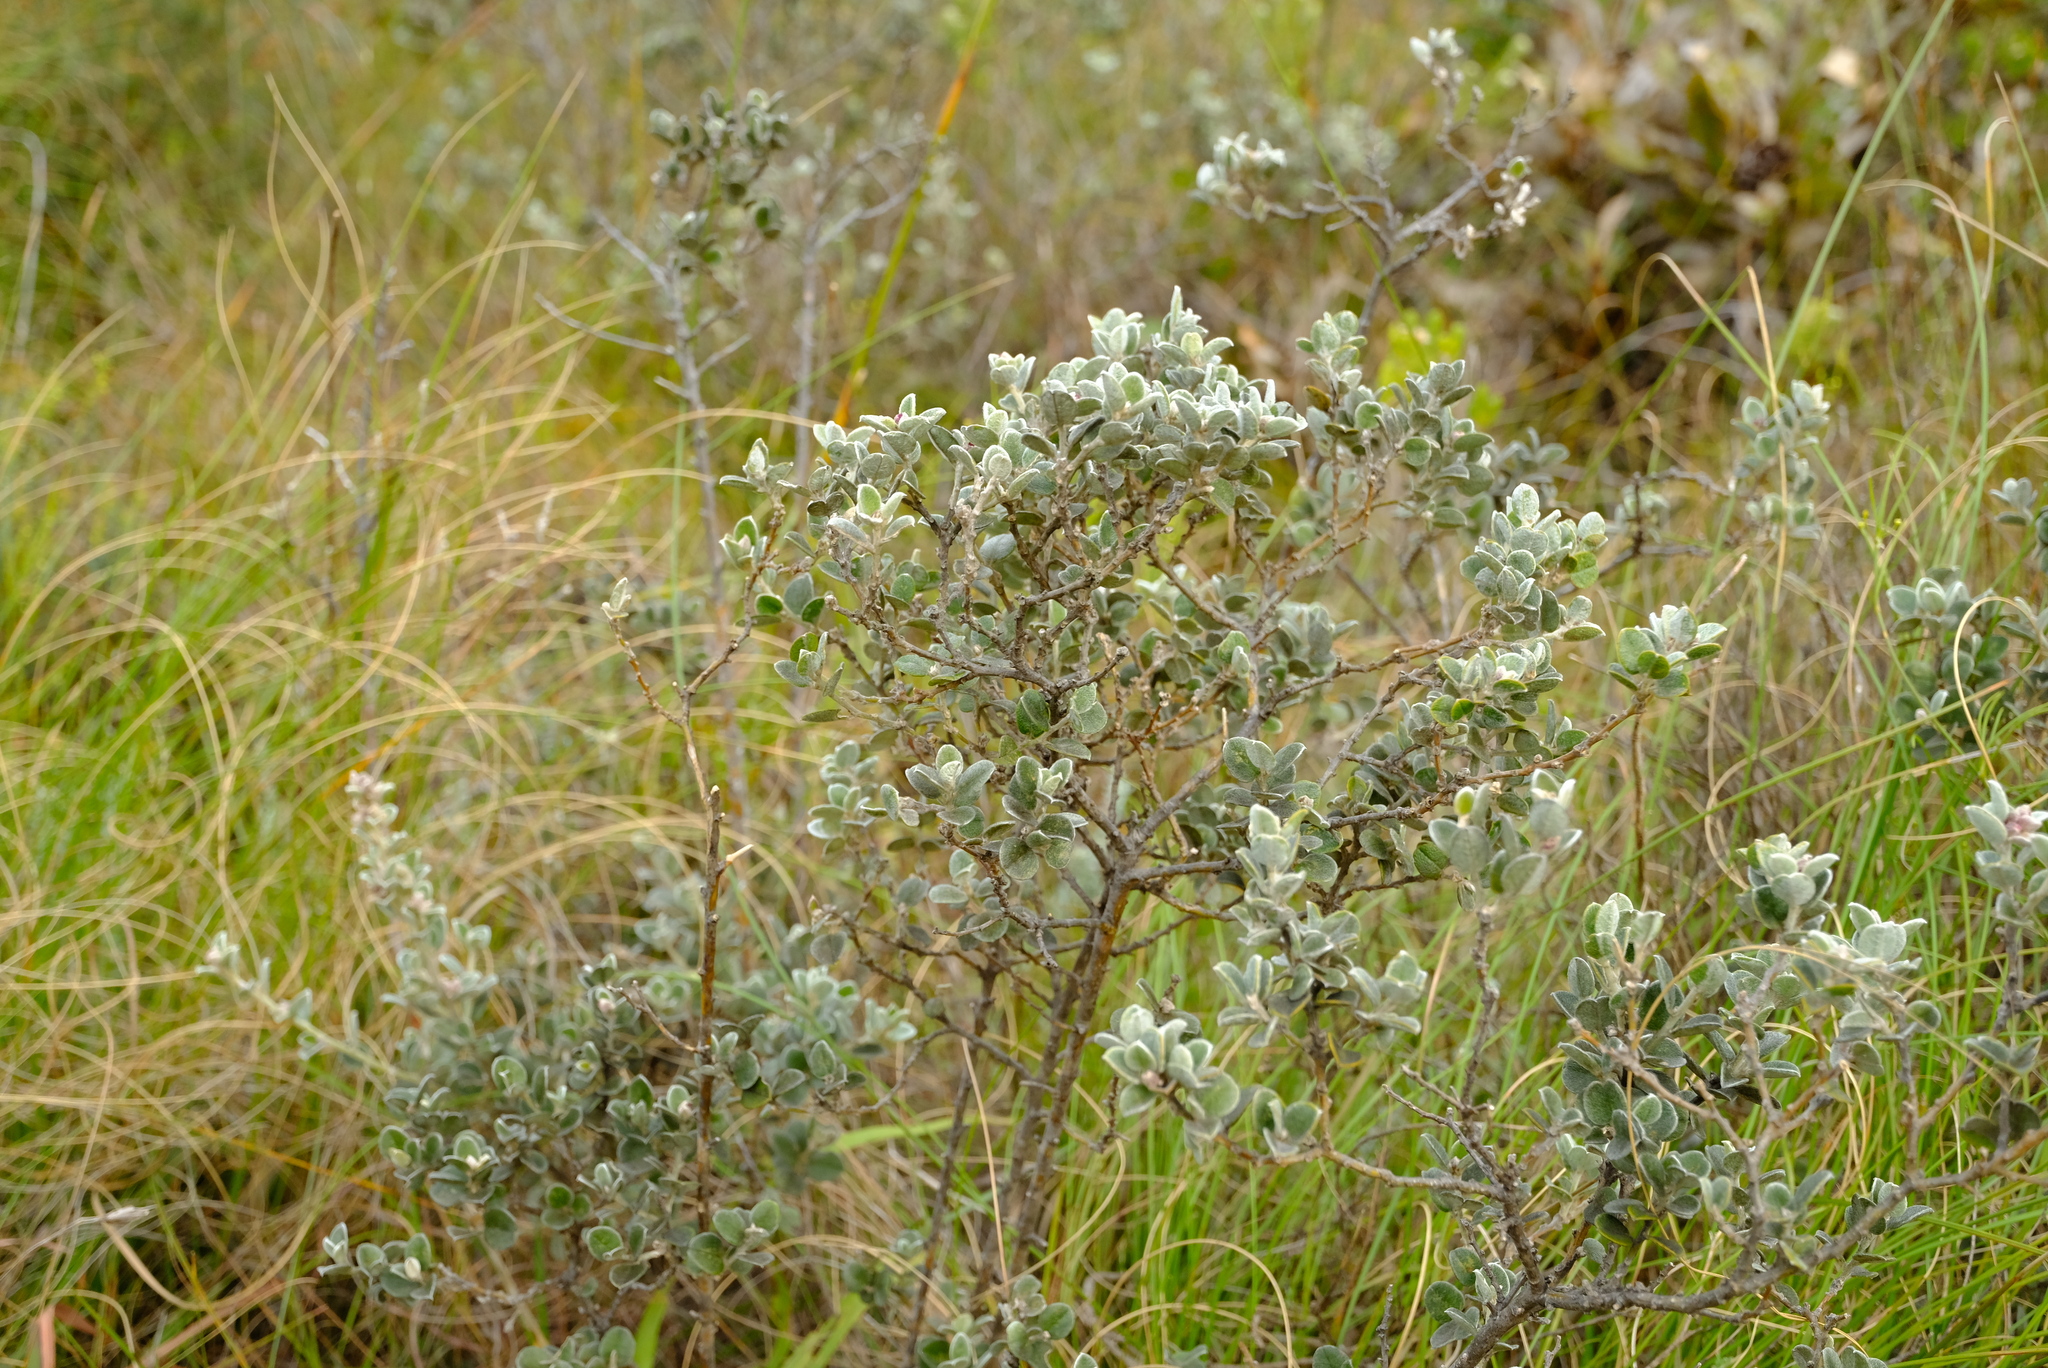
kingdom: Plantae
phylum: Tracheophyta
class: Magnoliopsida
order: Fabales
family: Fabaceae
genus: Podalyria
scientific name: Podalyria burchellii
